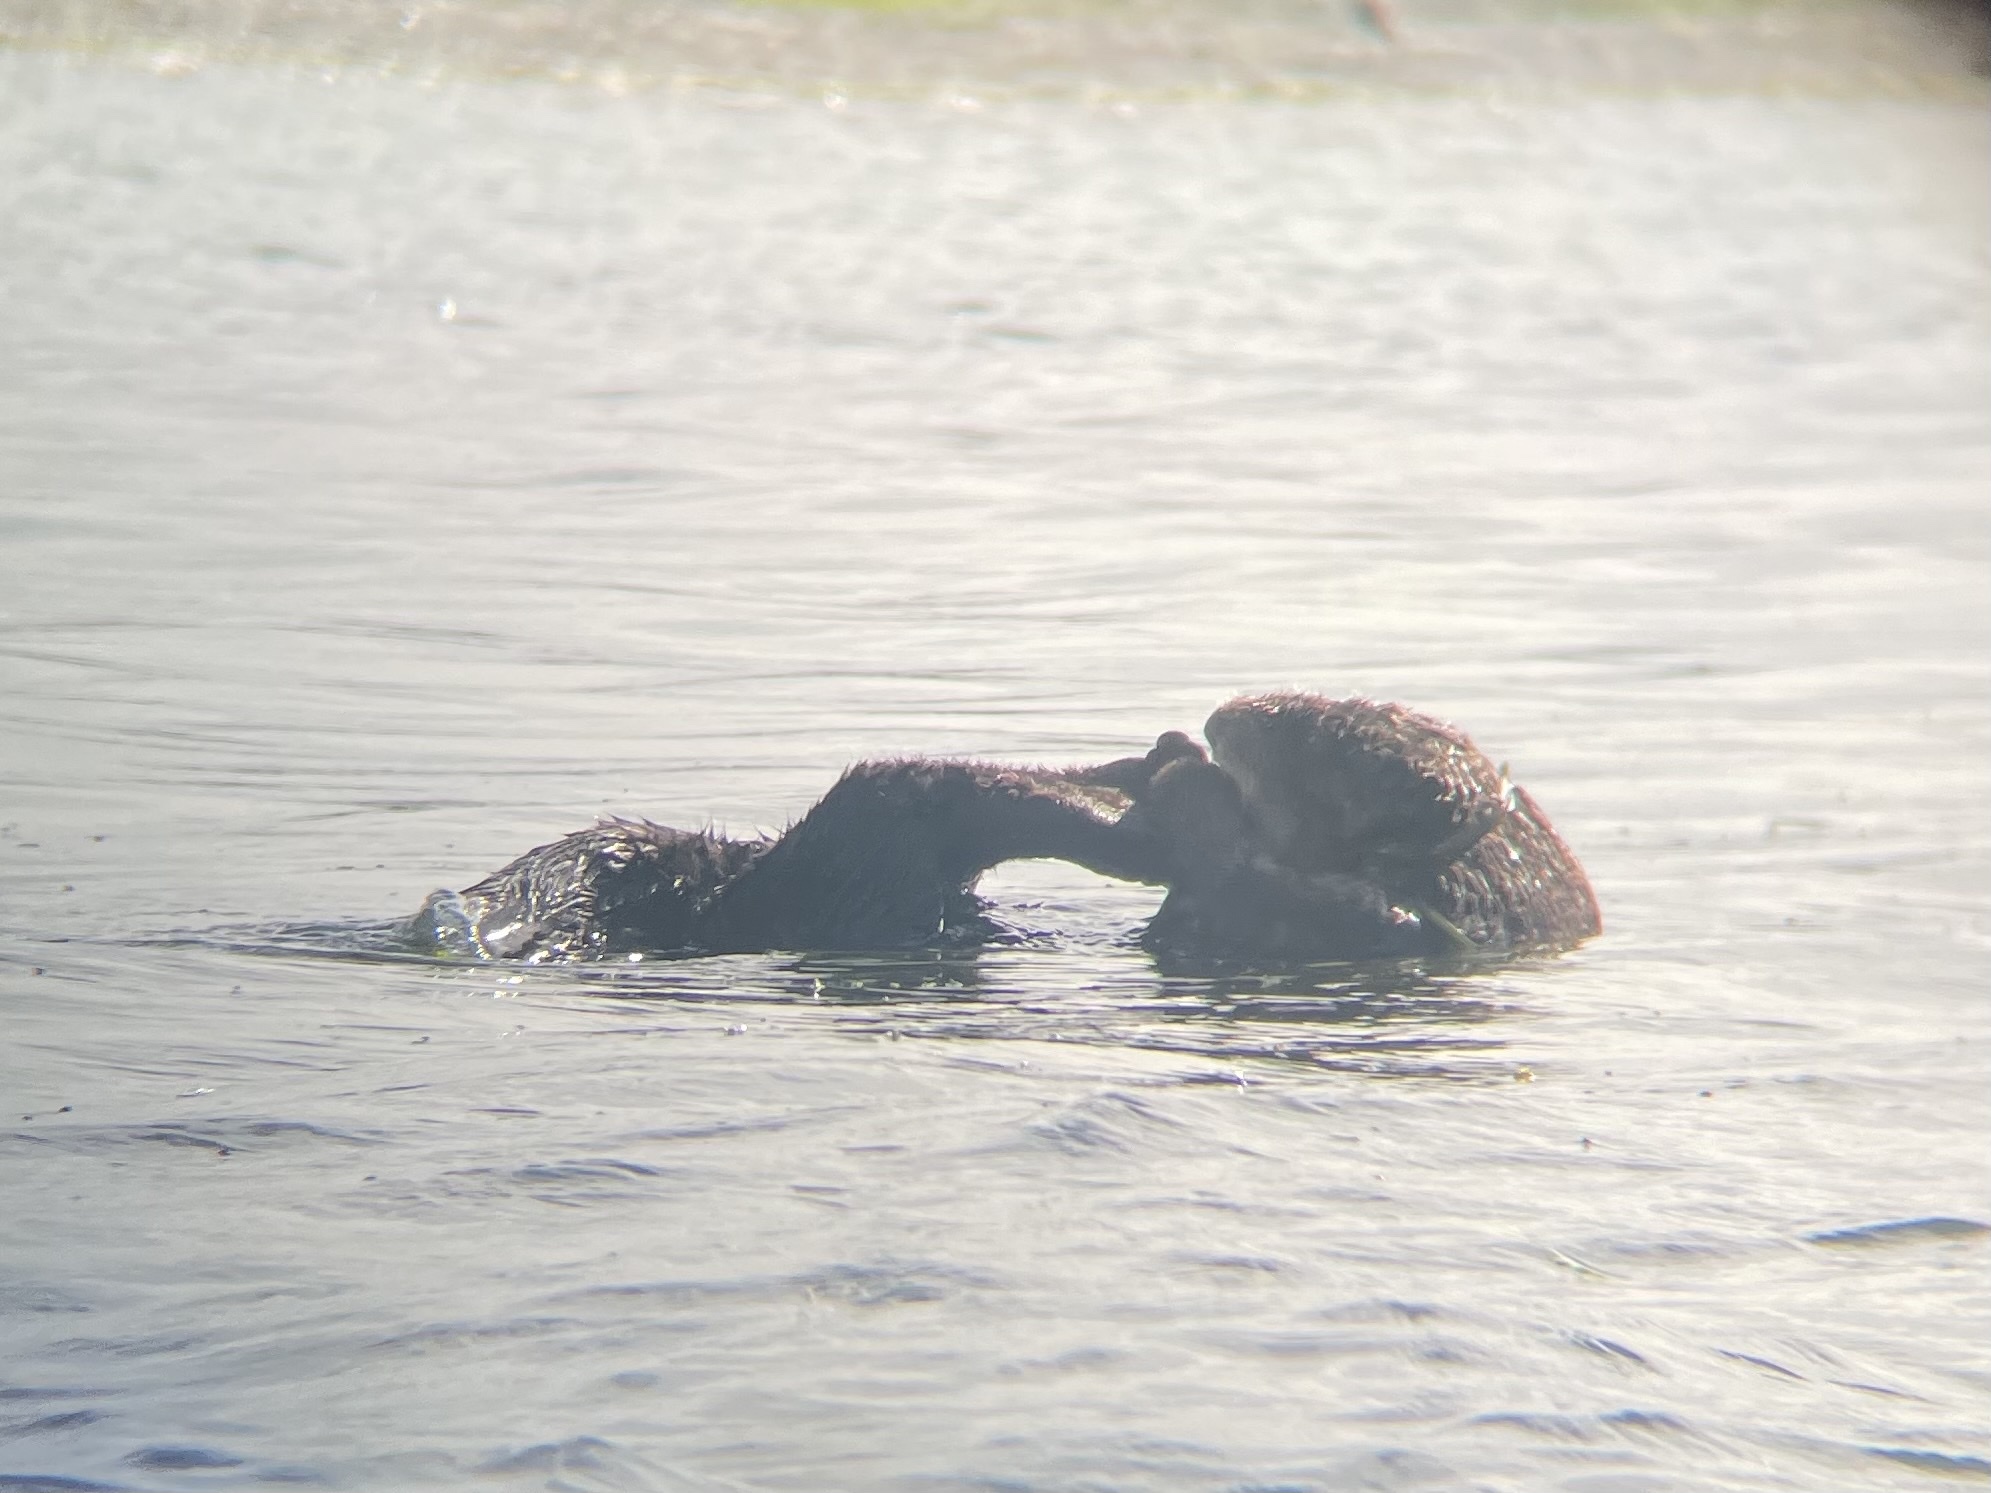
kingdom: Animalia
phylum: Chordata
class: Mammalia
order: Carnivora
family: Mustelidae
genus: Enhydra
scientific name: Enhydra lutris
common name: Sea otter
